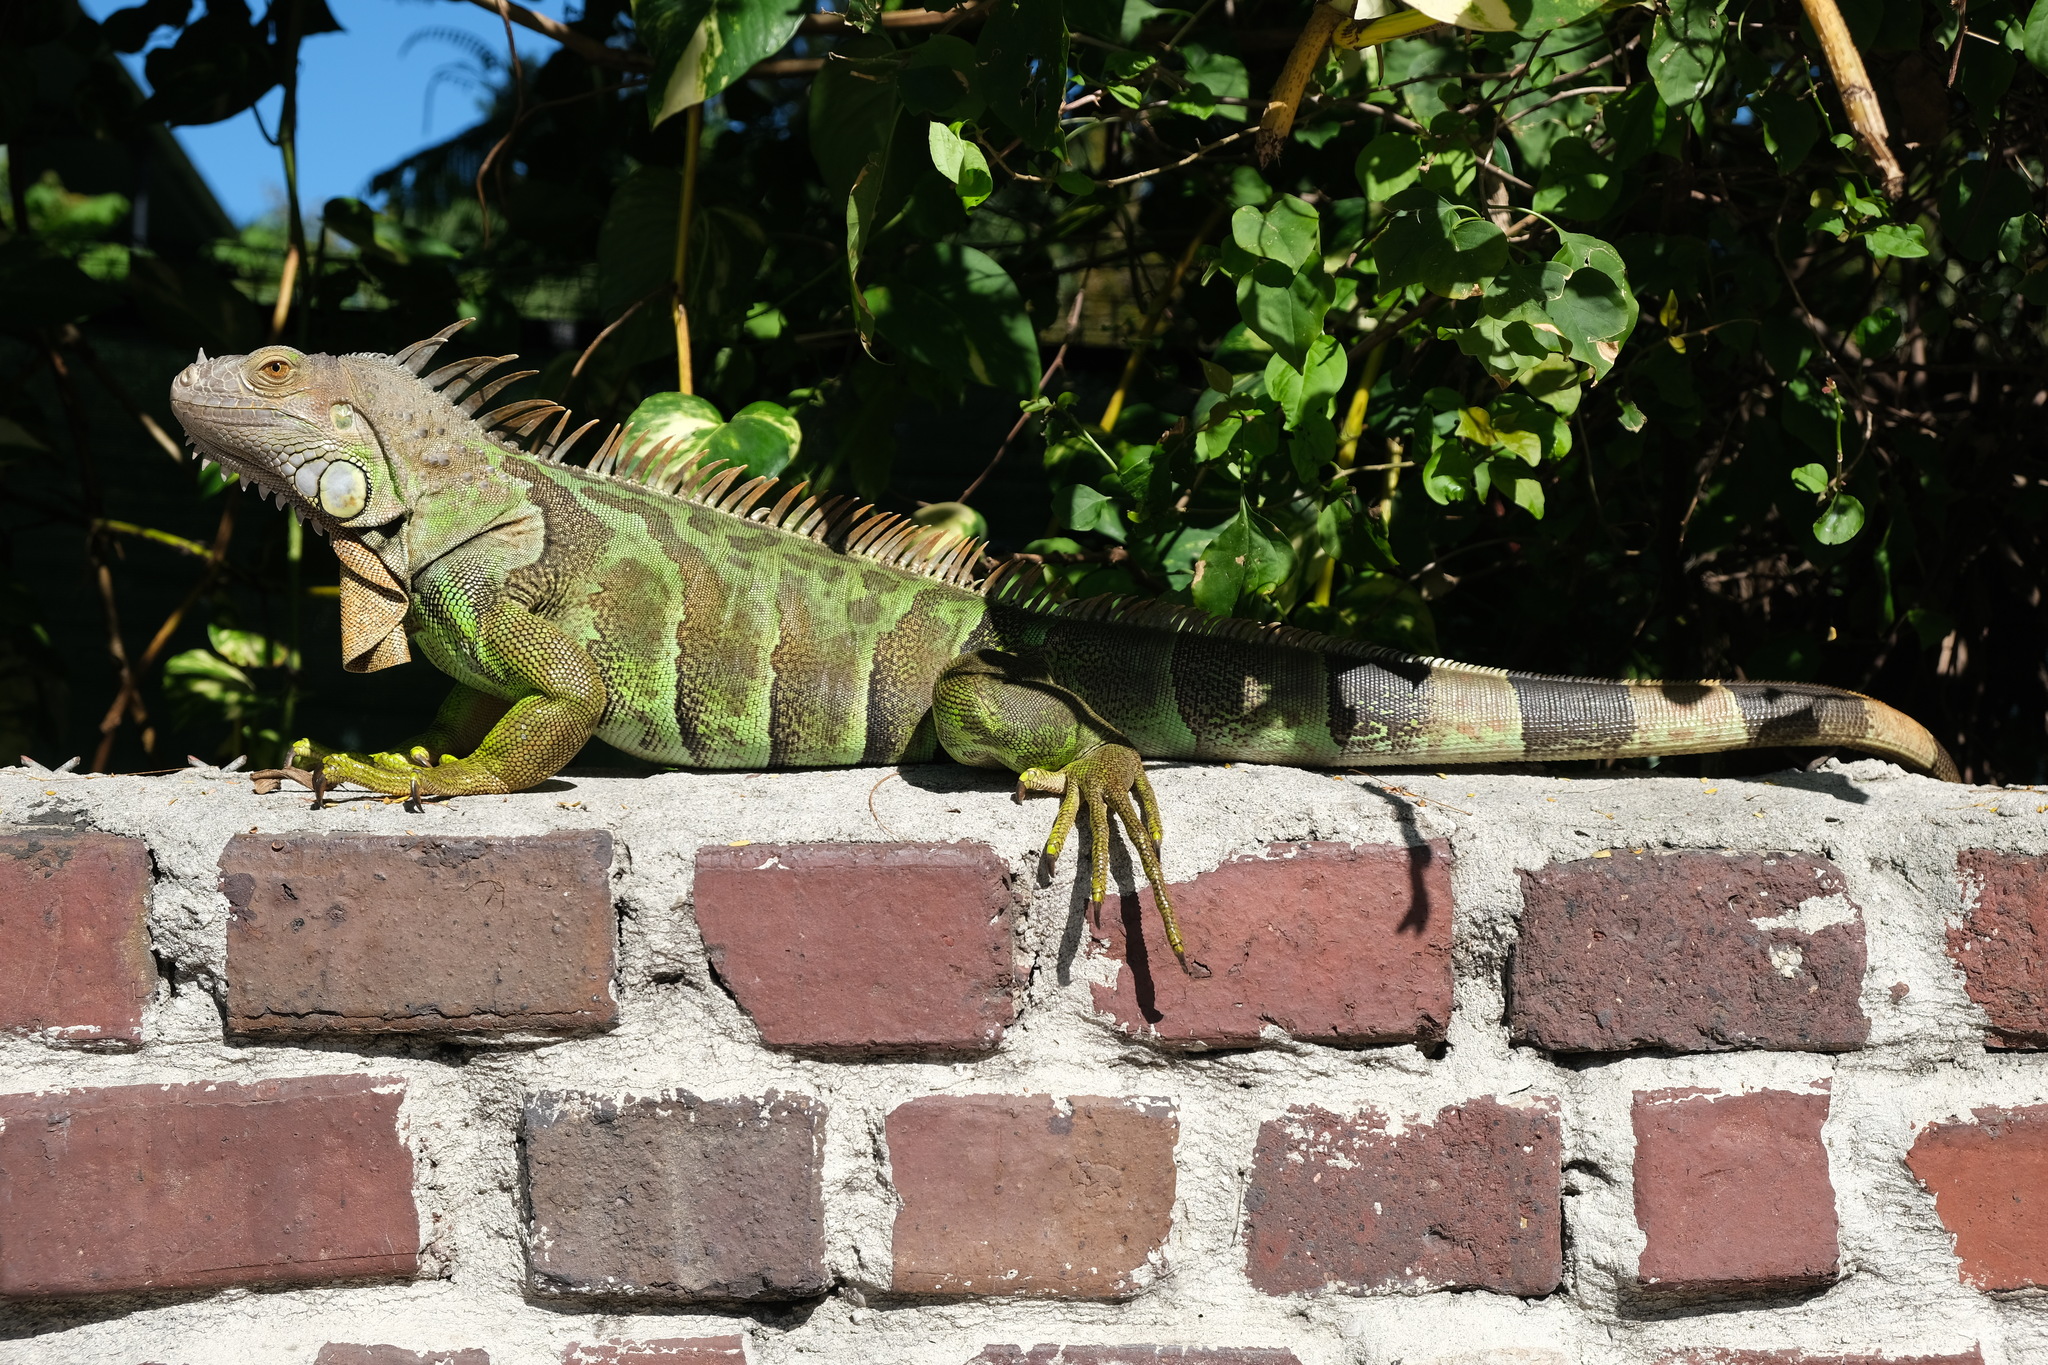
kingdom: Animalia
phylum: Chordata
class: Squamata
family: Iguanidae
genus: Iguana
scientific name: Iguana iguana
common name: Green iguana
